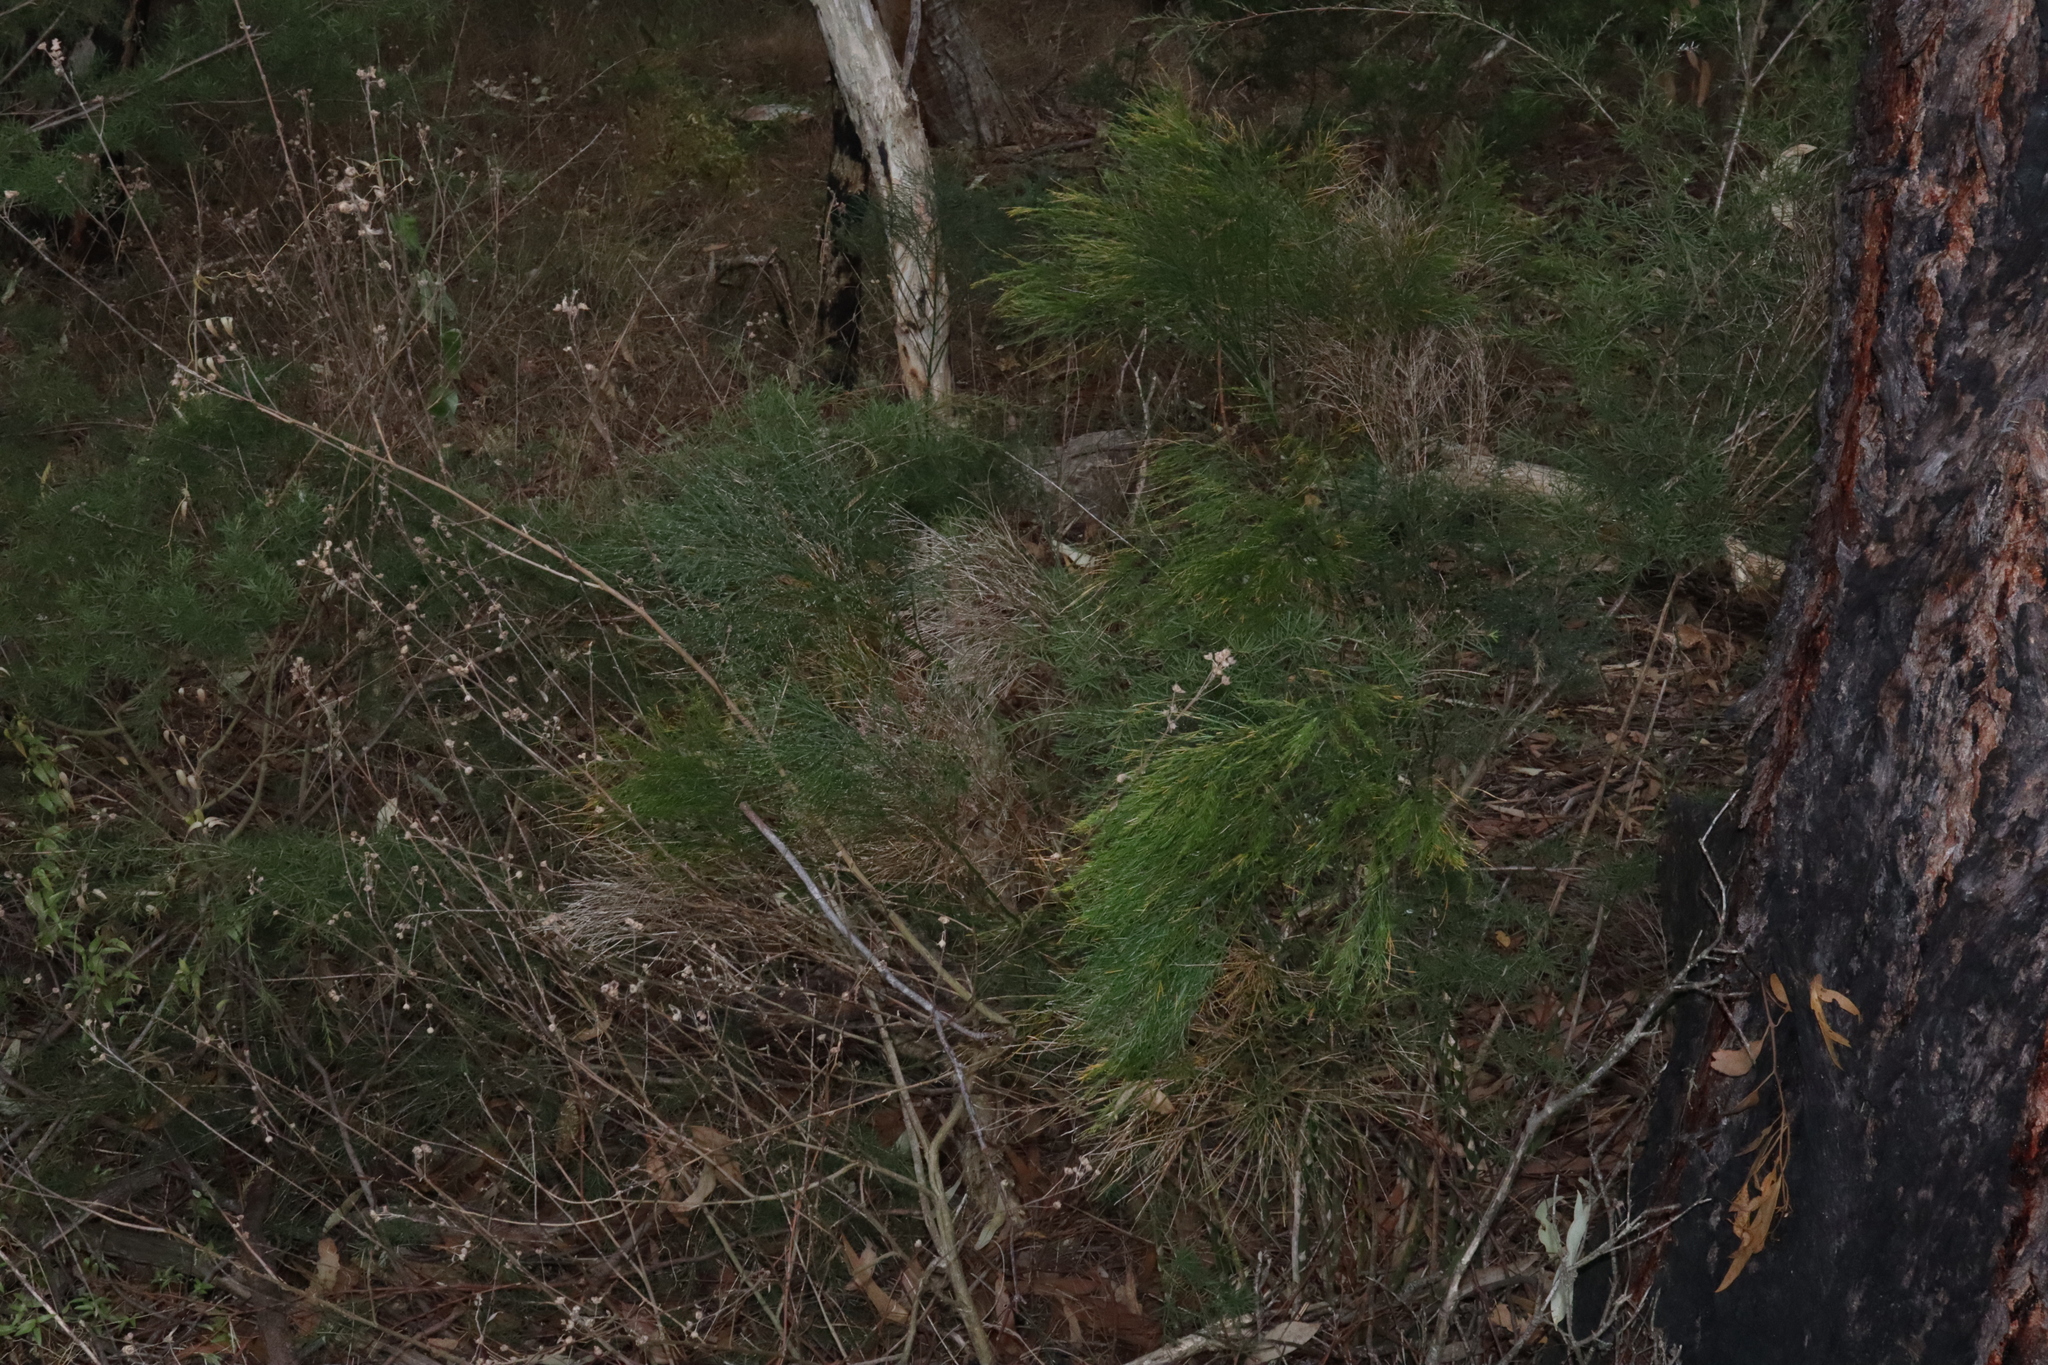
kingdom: Plantae
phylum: Tracheophyta
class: Liliopsida
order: Asparagales
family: Asparagaceae
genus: Asparagus
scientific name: Asparagus virgatus
